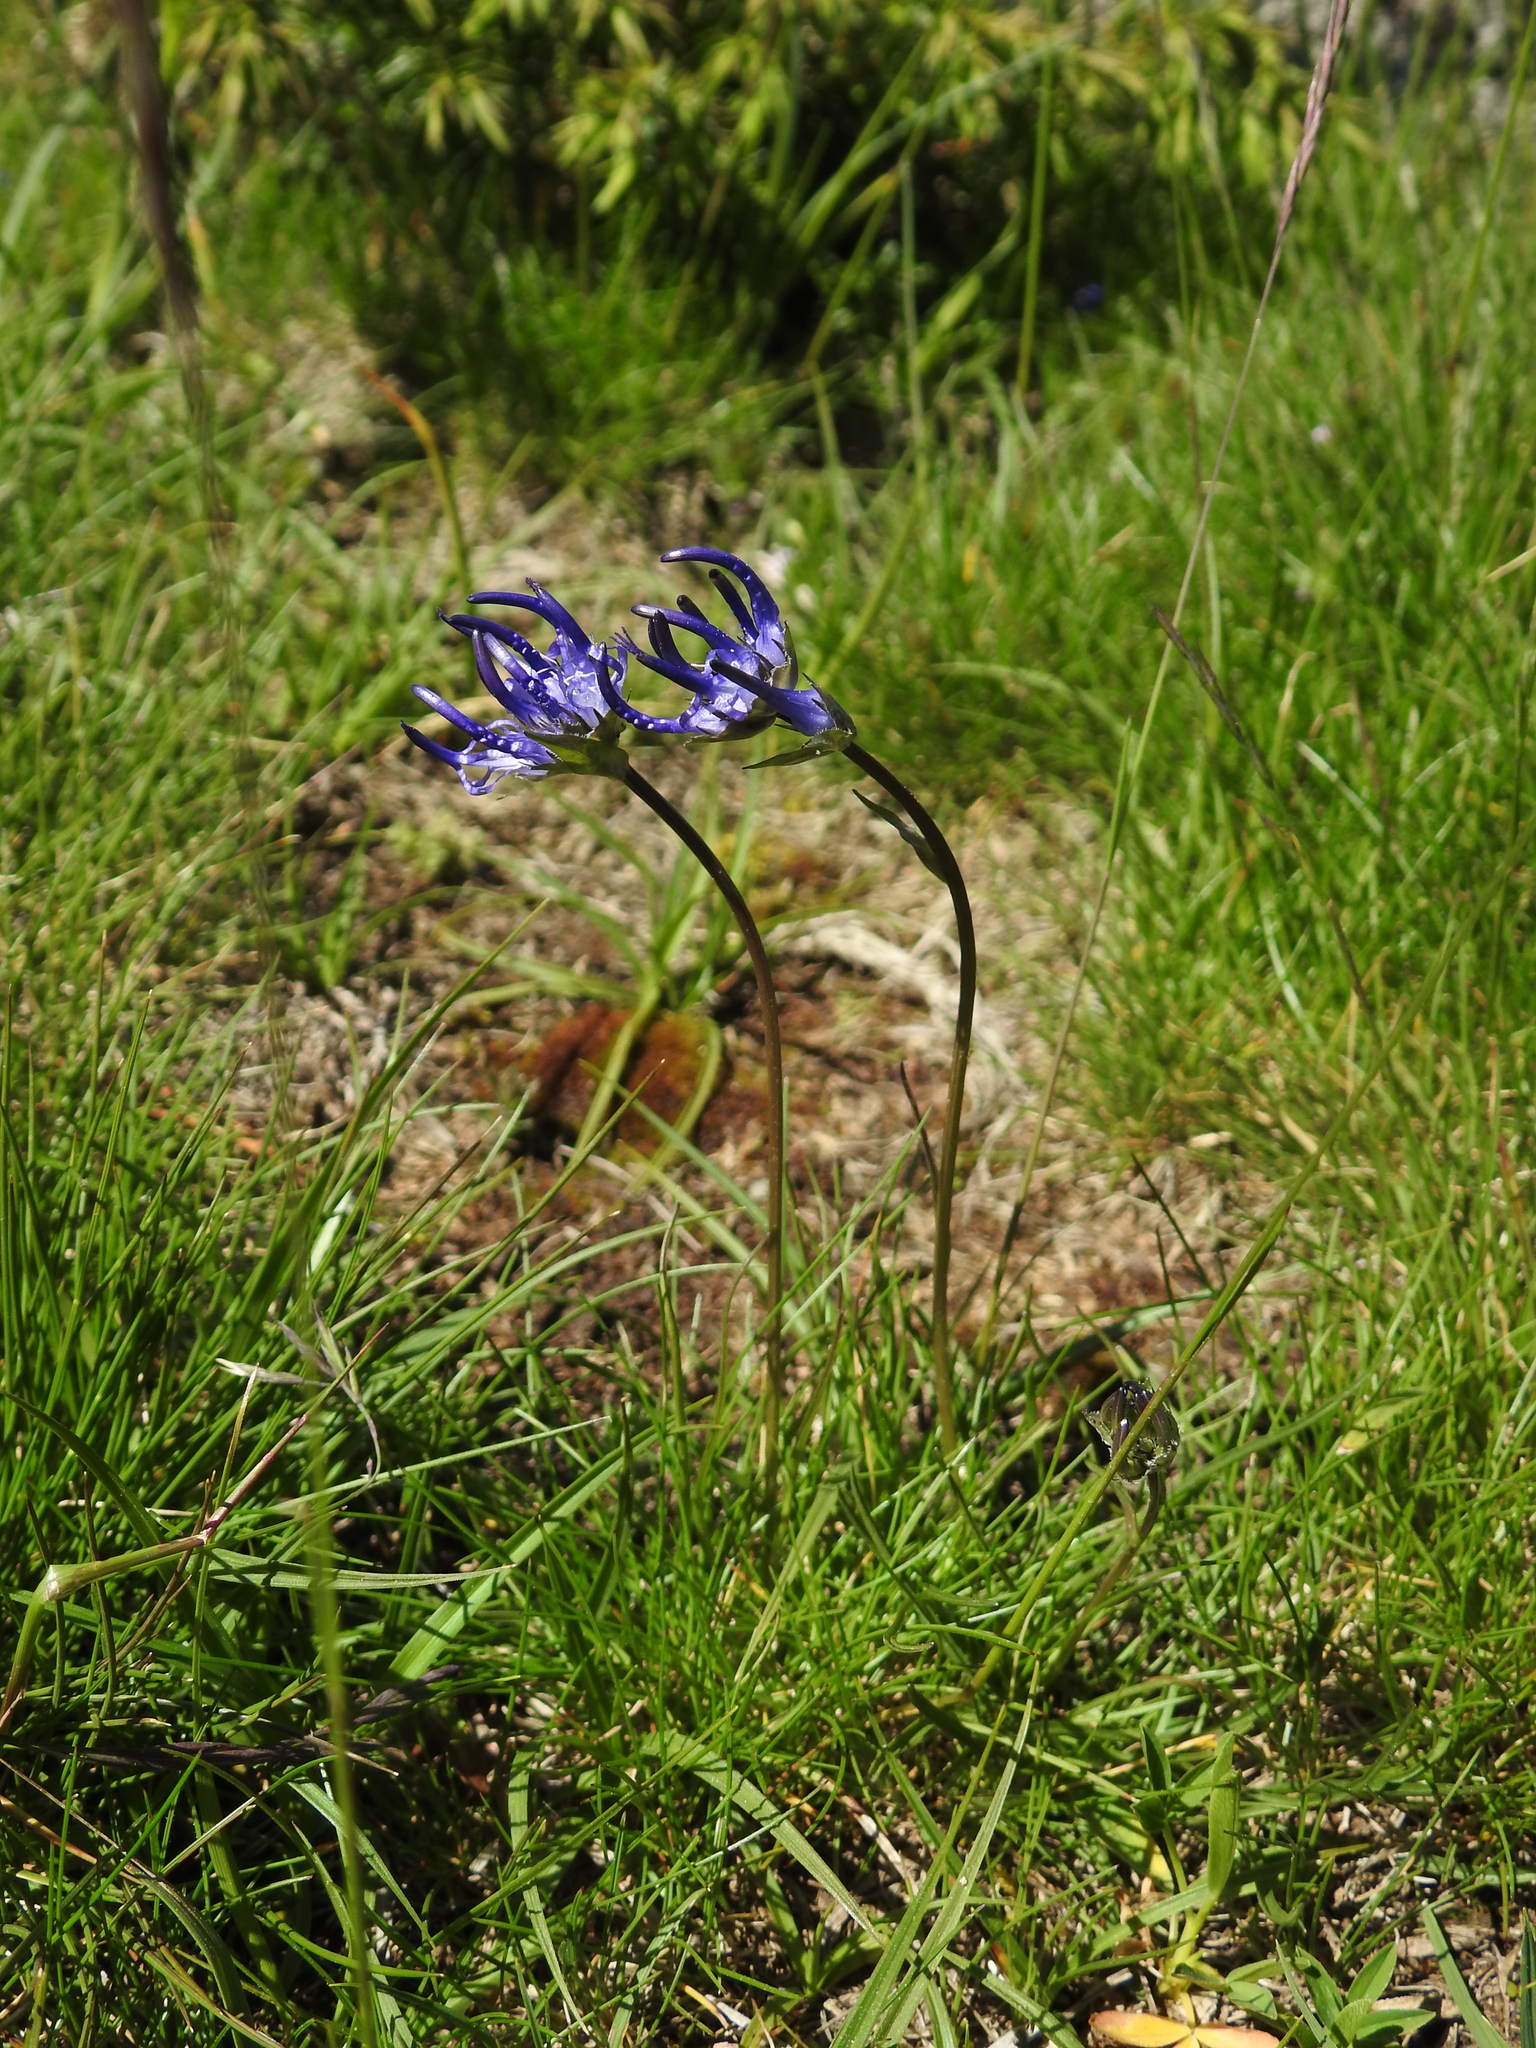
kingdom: Plantae
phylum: Tracheophyta
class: Magnoliopsida
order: Asterales
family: Campanulaceae
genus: Phyteuma
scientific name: Phyteuma hemisphaericum
